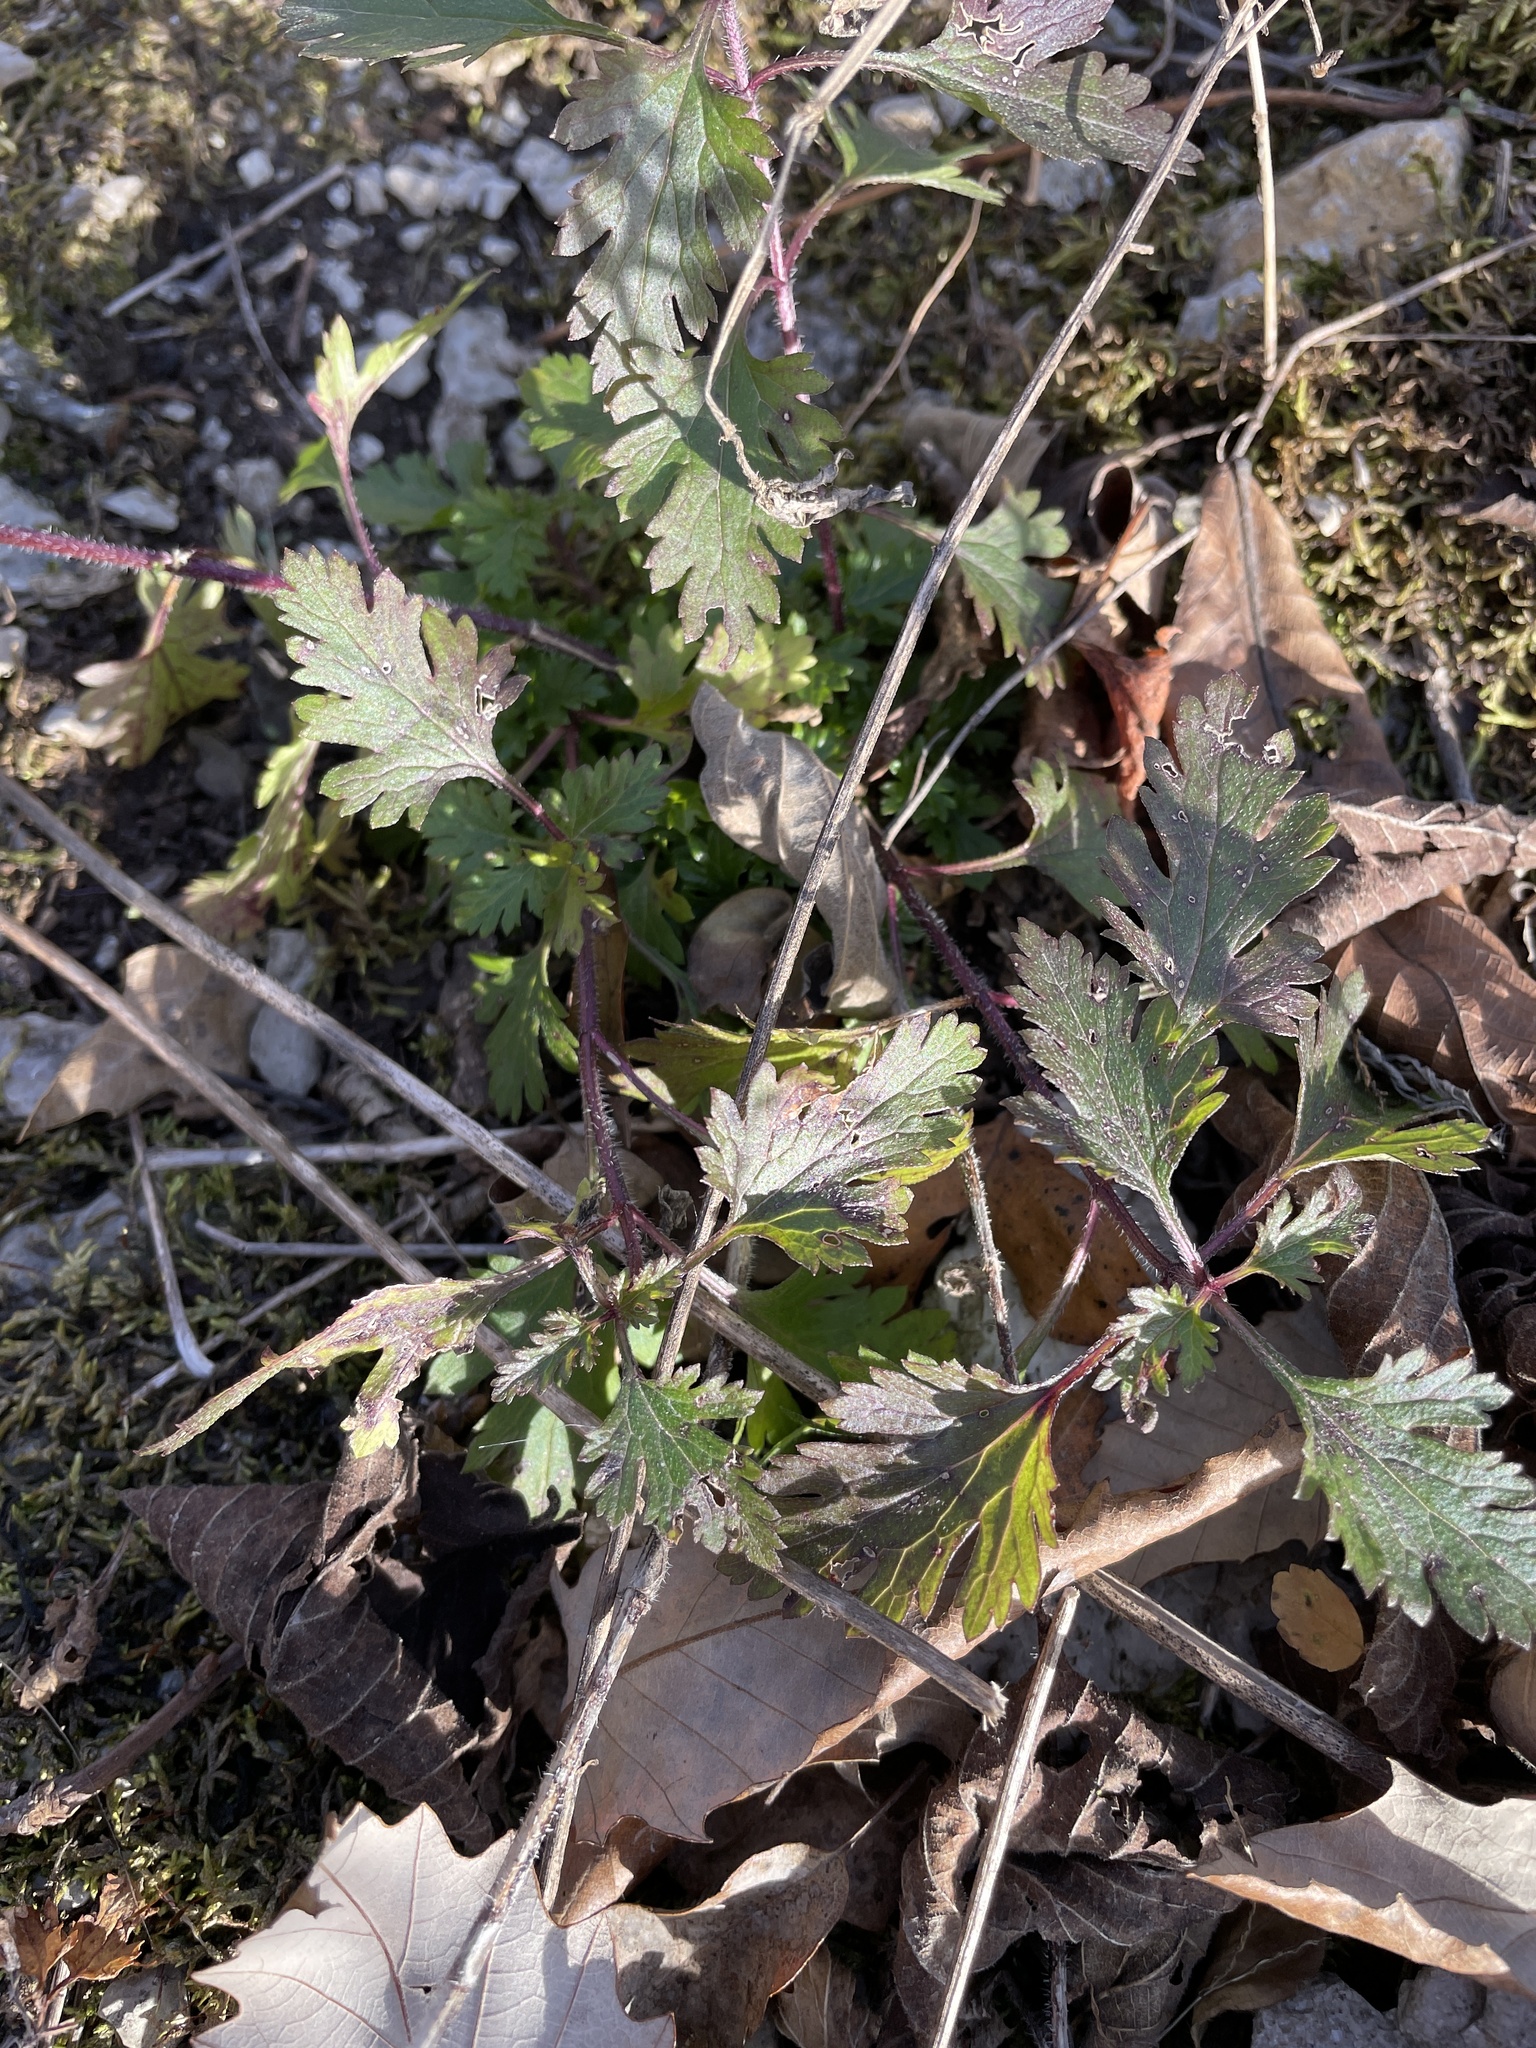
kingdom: Plantae
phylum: Tracheophyta
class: Magnoliopsida
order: Lamiales
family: Verbenaceae
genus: Verbena
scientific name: Verbena canadensis
